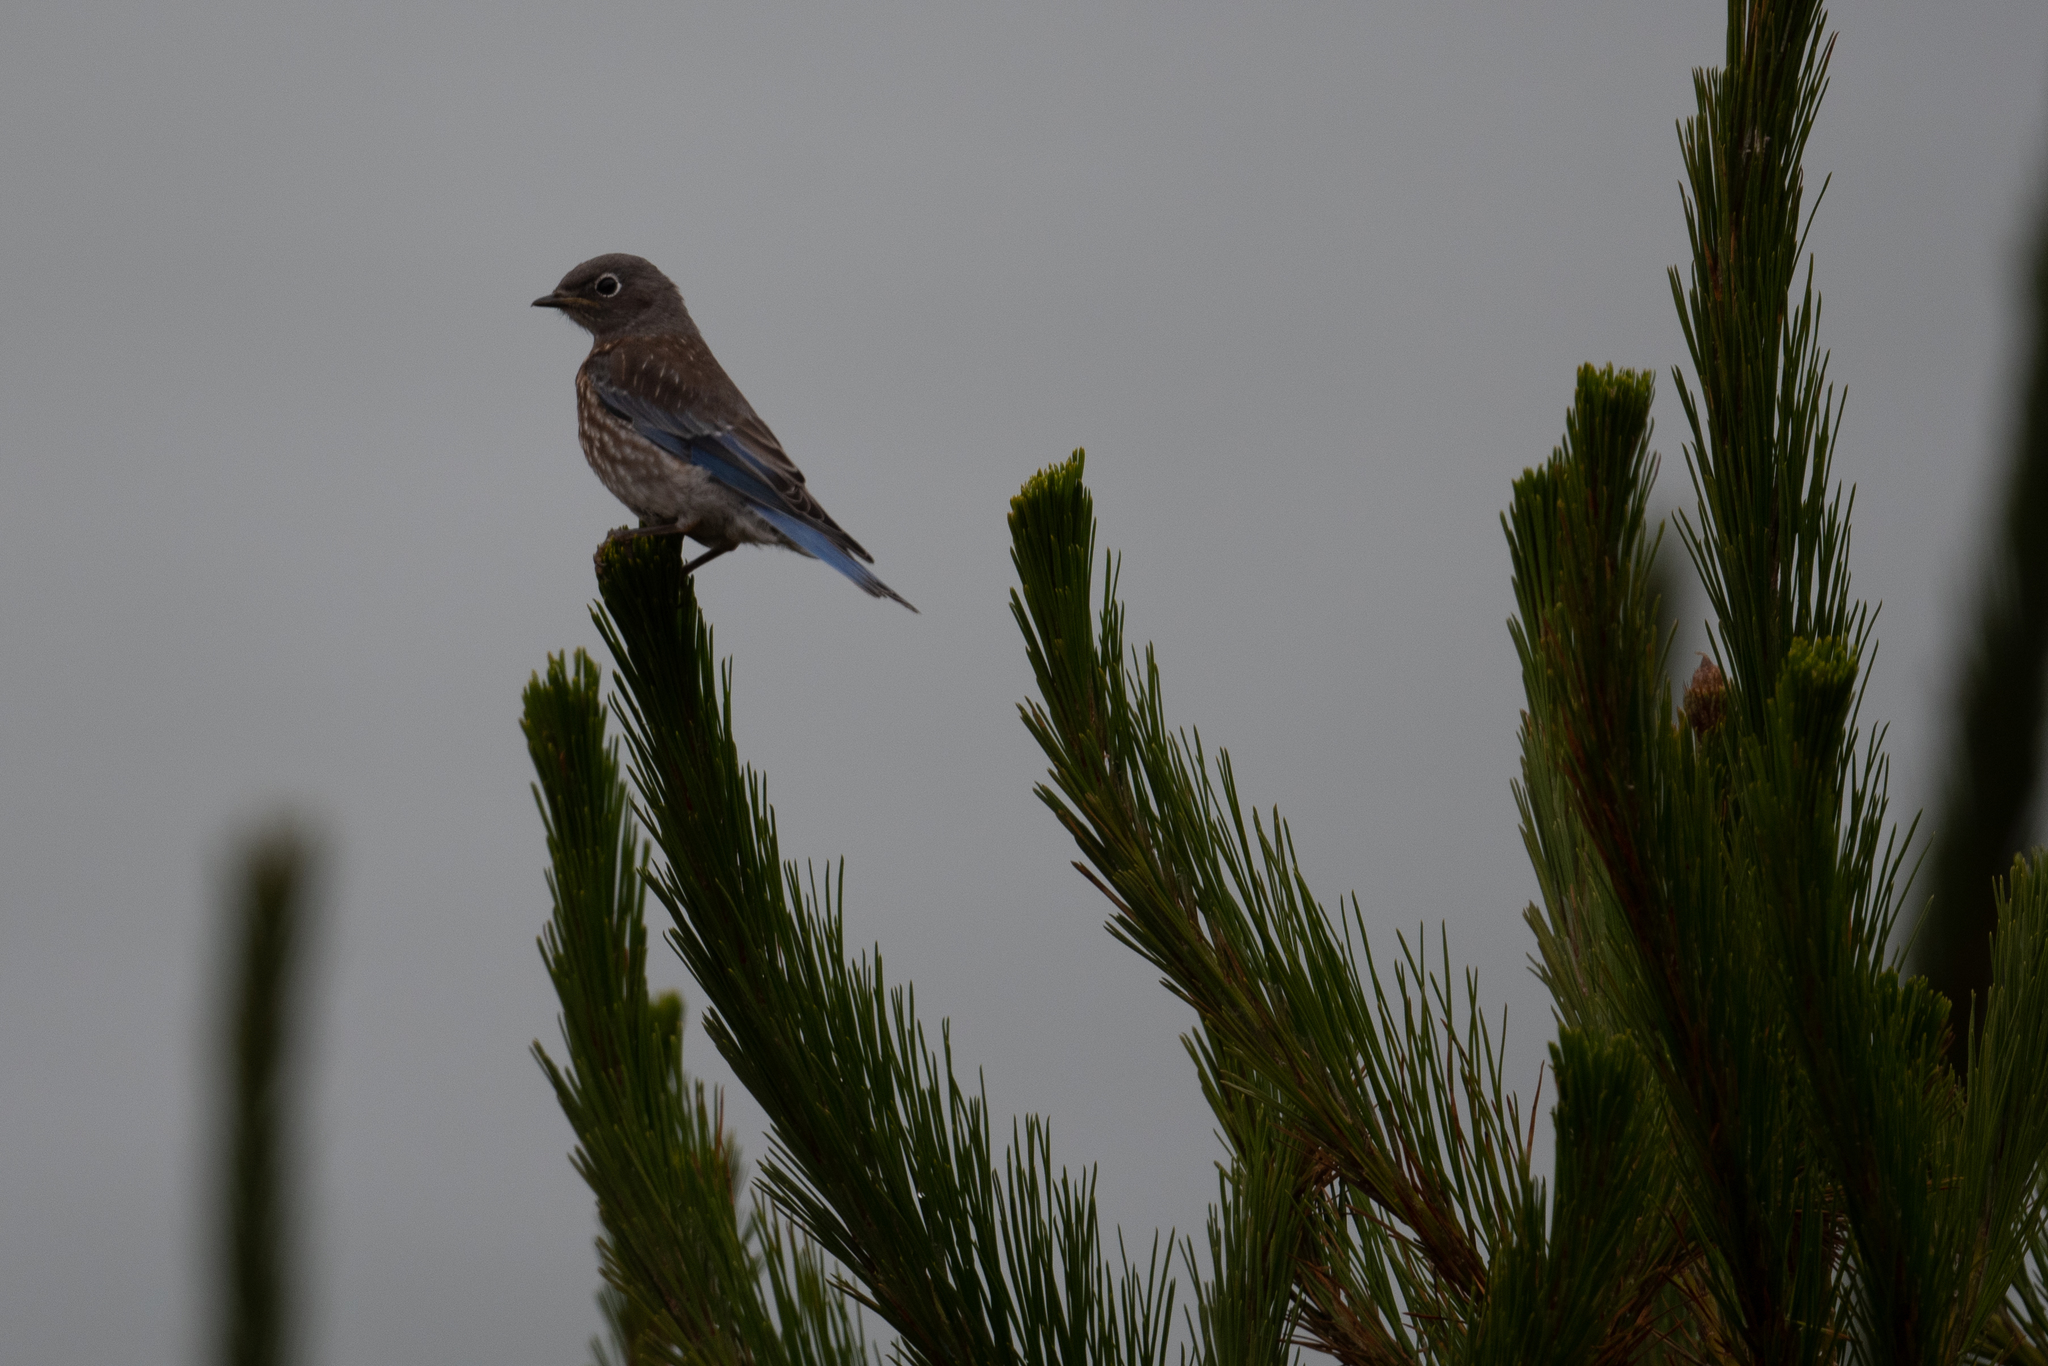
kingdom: Animalia
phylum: Chordata
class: Aves
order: Passeriformes
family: Turdidae
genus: Sialia
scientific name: Sialia mexicana
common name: Western bluebird
